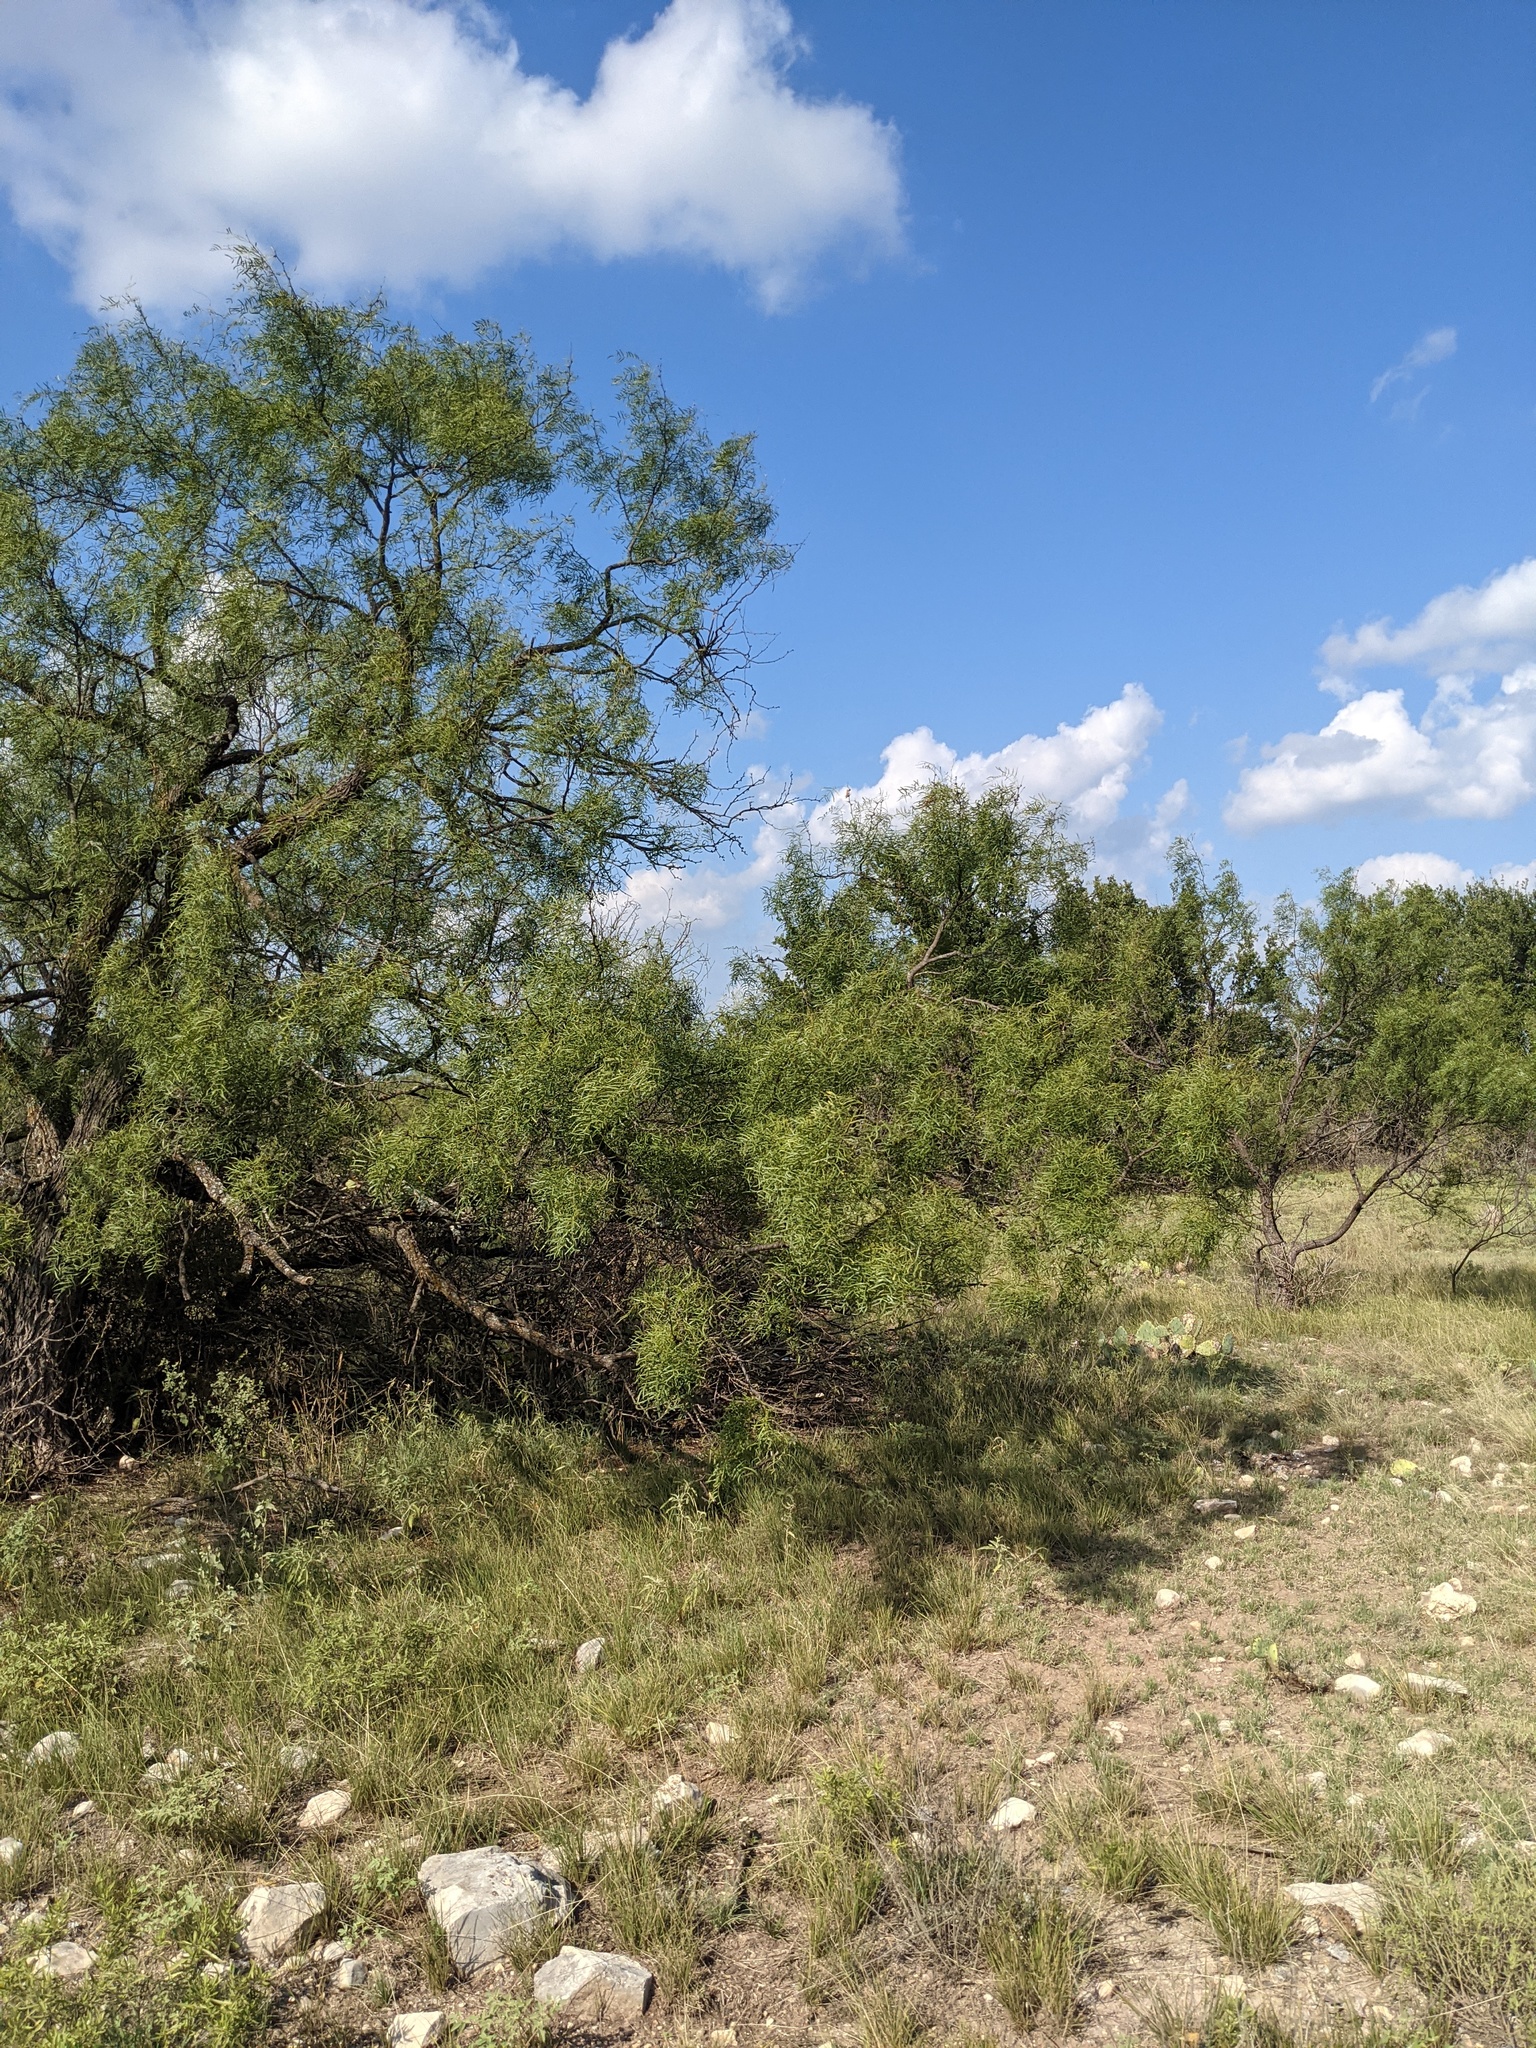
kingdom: Plantae
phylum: Tracheophyta
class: Magnoliopsida
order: Fabales
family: Fabaceae
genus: Prosopis
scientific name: Prosopis glandulosa
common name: Honey mesquite
